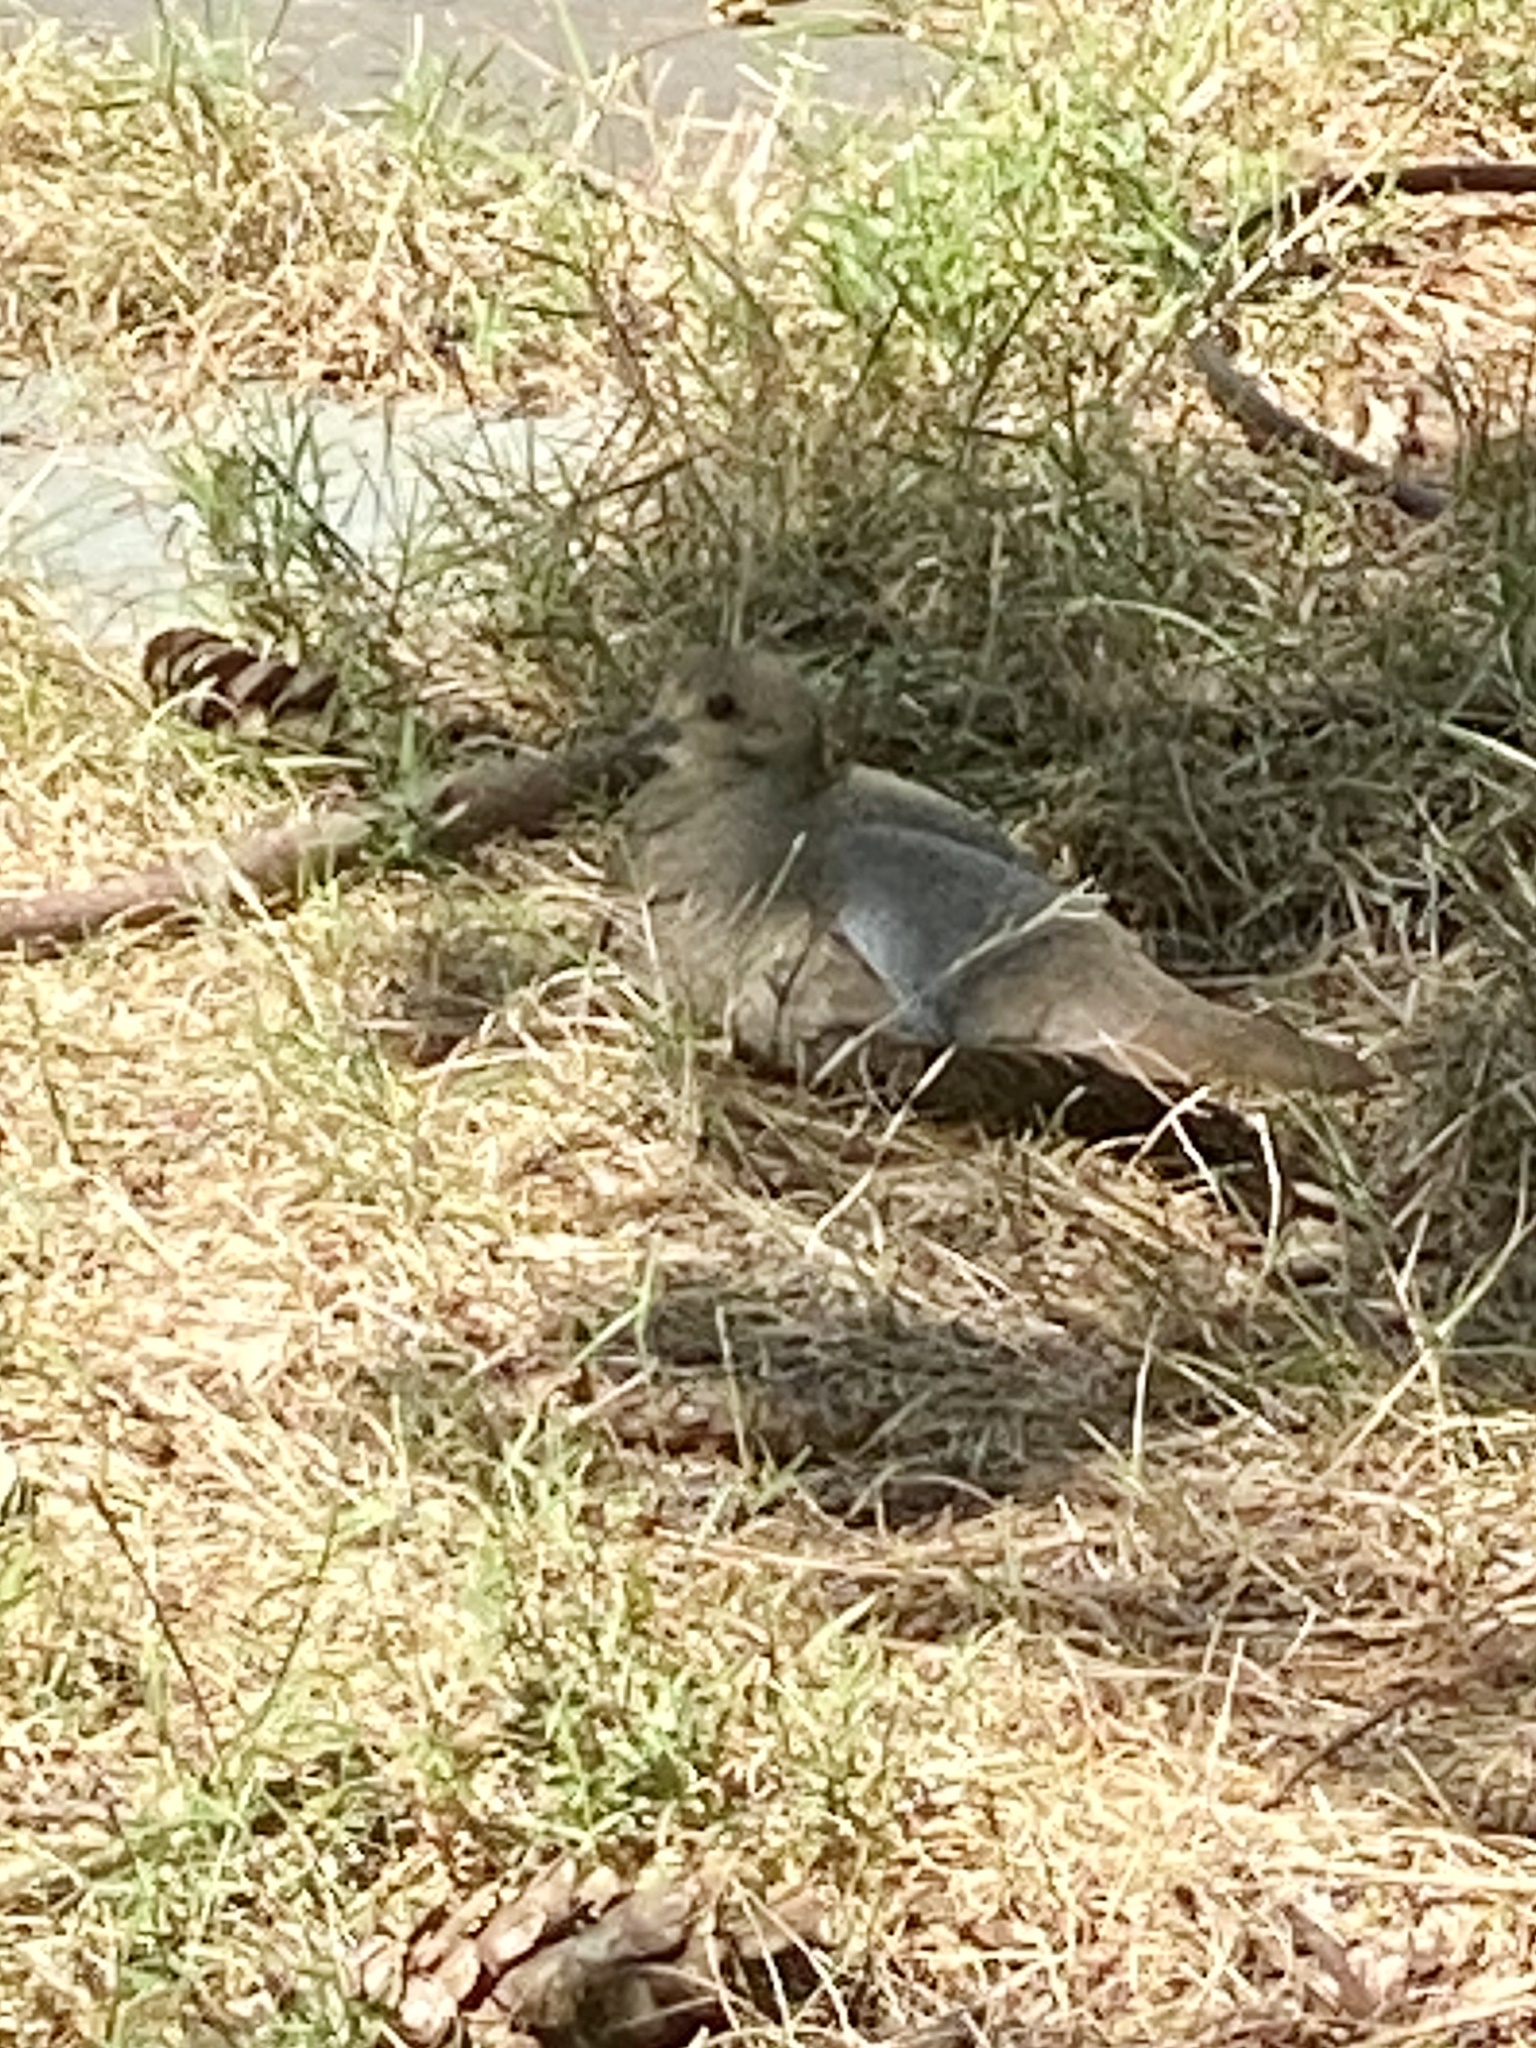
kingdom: Animalia
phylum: Chordata
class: Aves
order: Columbiformes
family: Columbidae
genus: Zenaida
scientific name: Zenaida macroura
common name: Mourning dove
